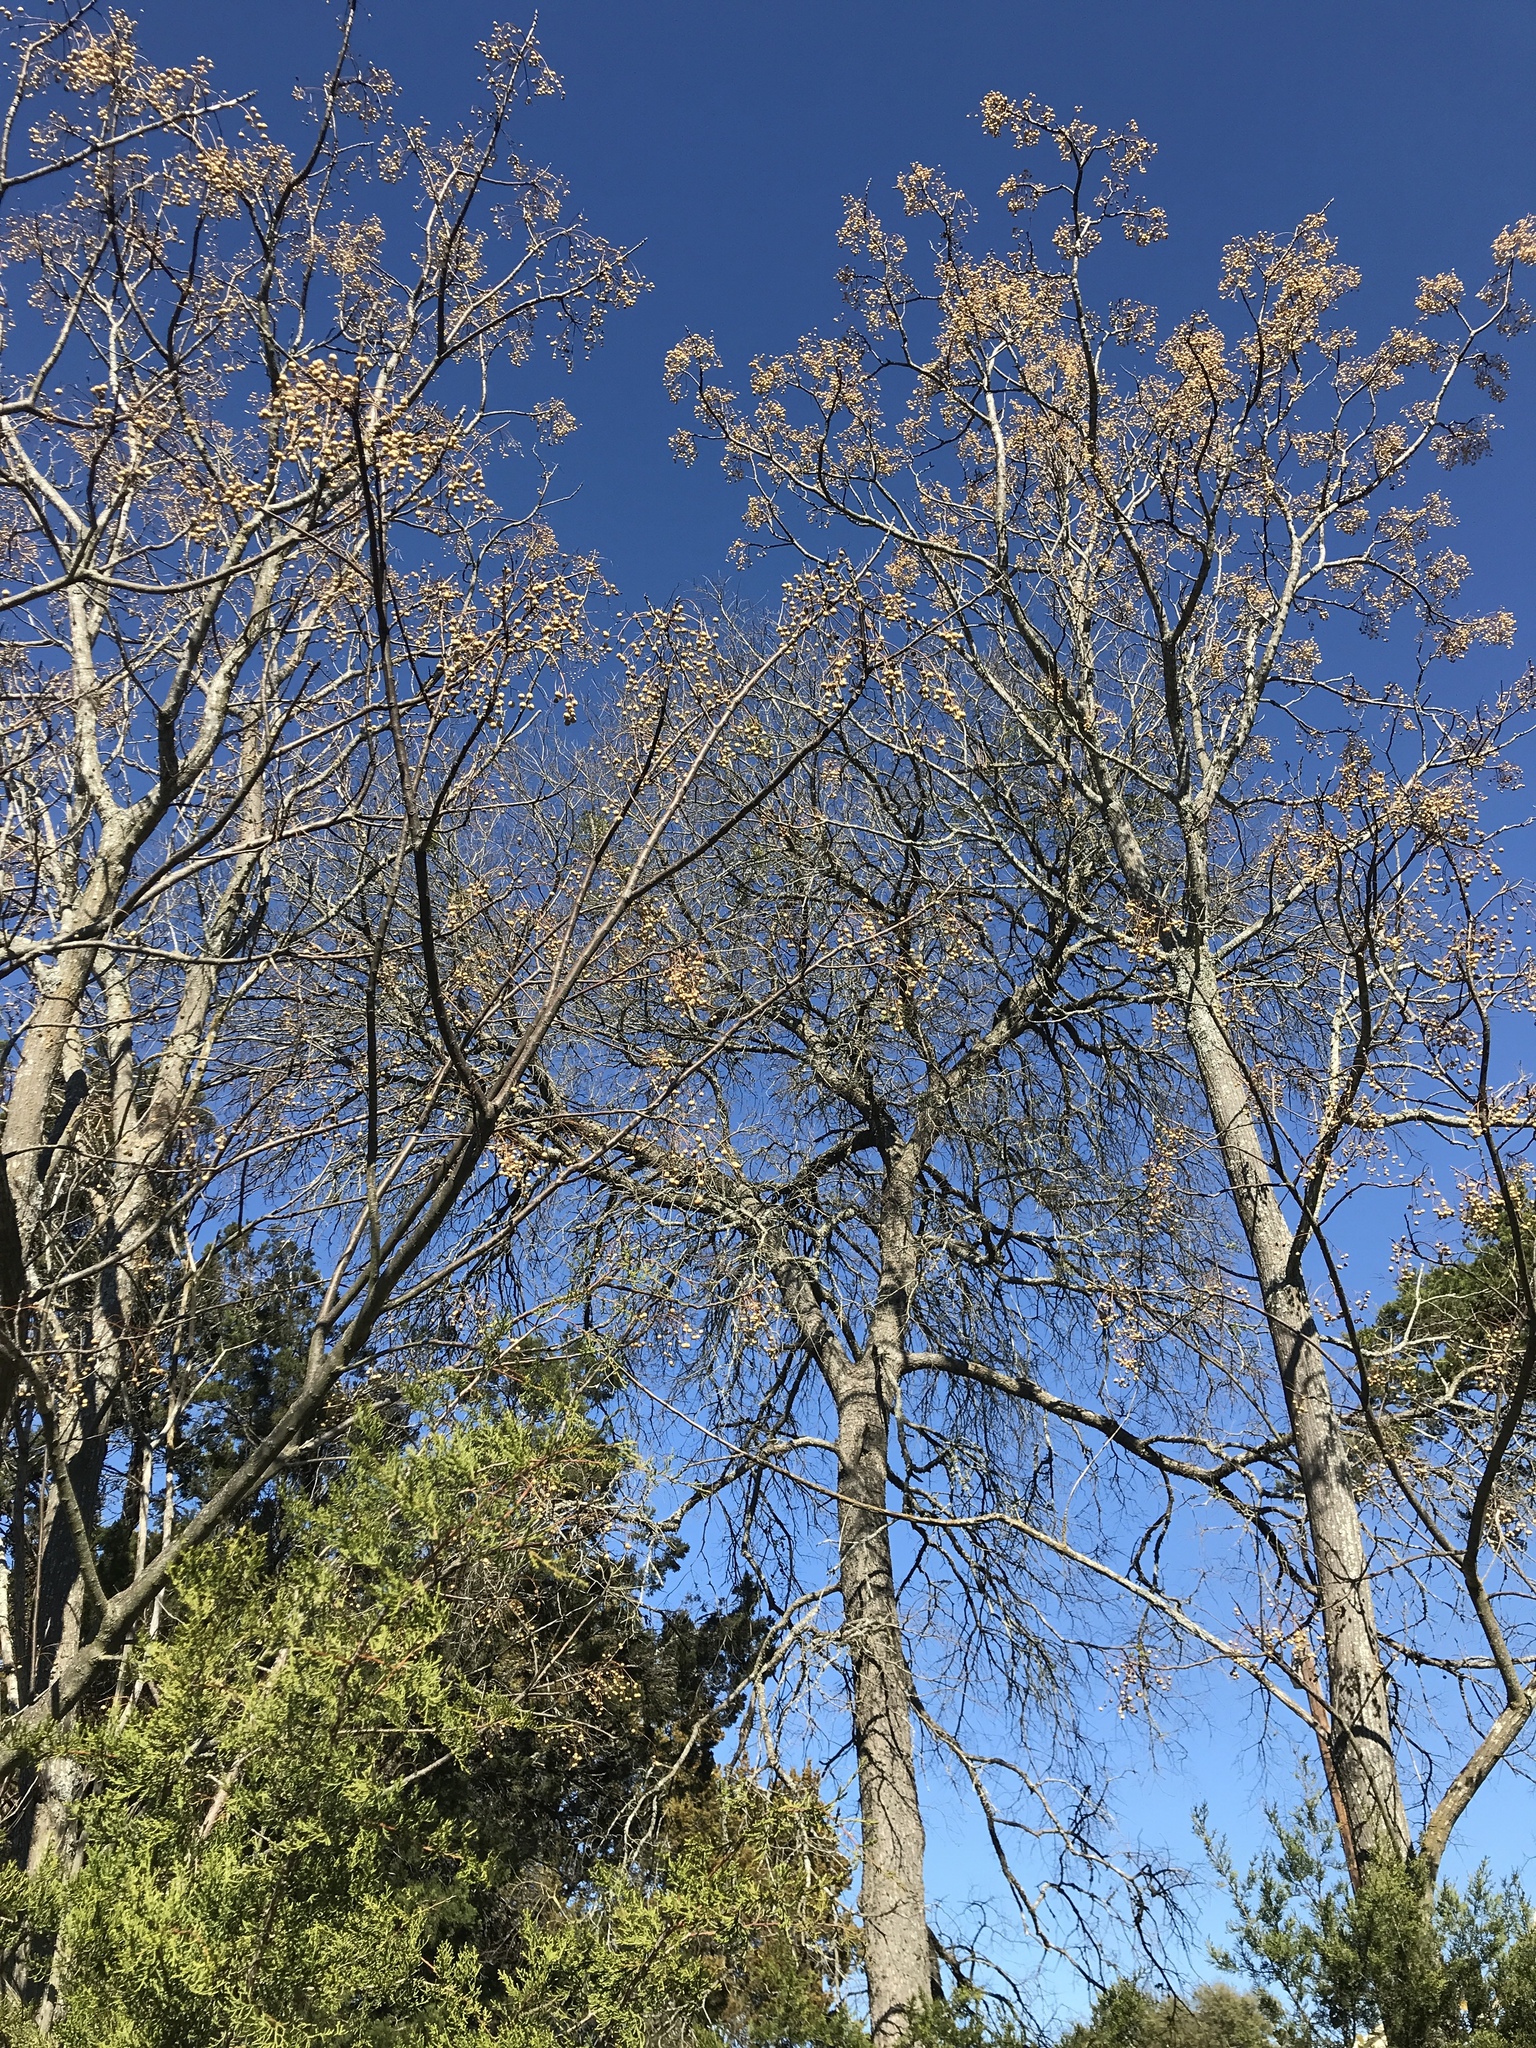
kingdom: Plantae
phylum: Tracheophyta
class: Magnoliopsida
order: Sapindales
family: Meliaceae
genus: Melia
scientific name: Melia azedarach
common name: Chinaberrytree
